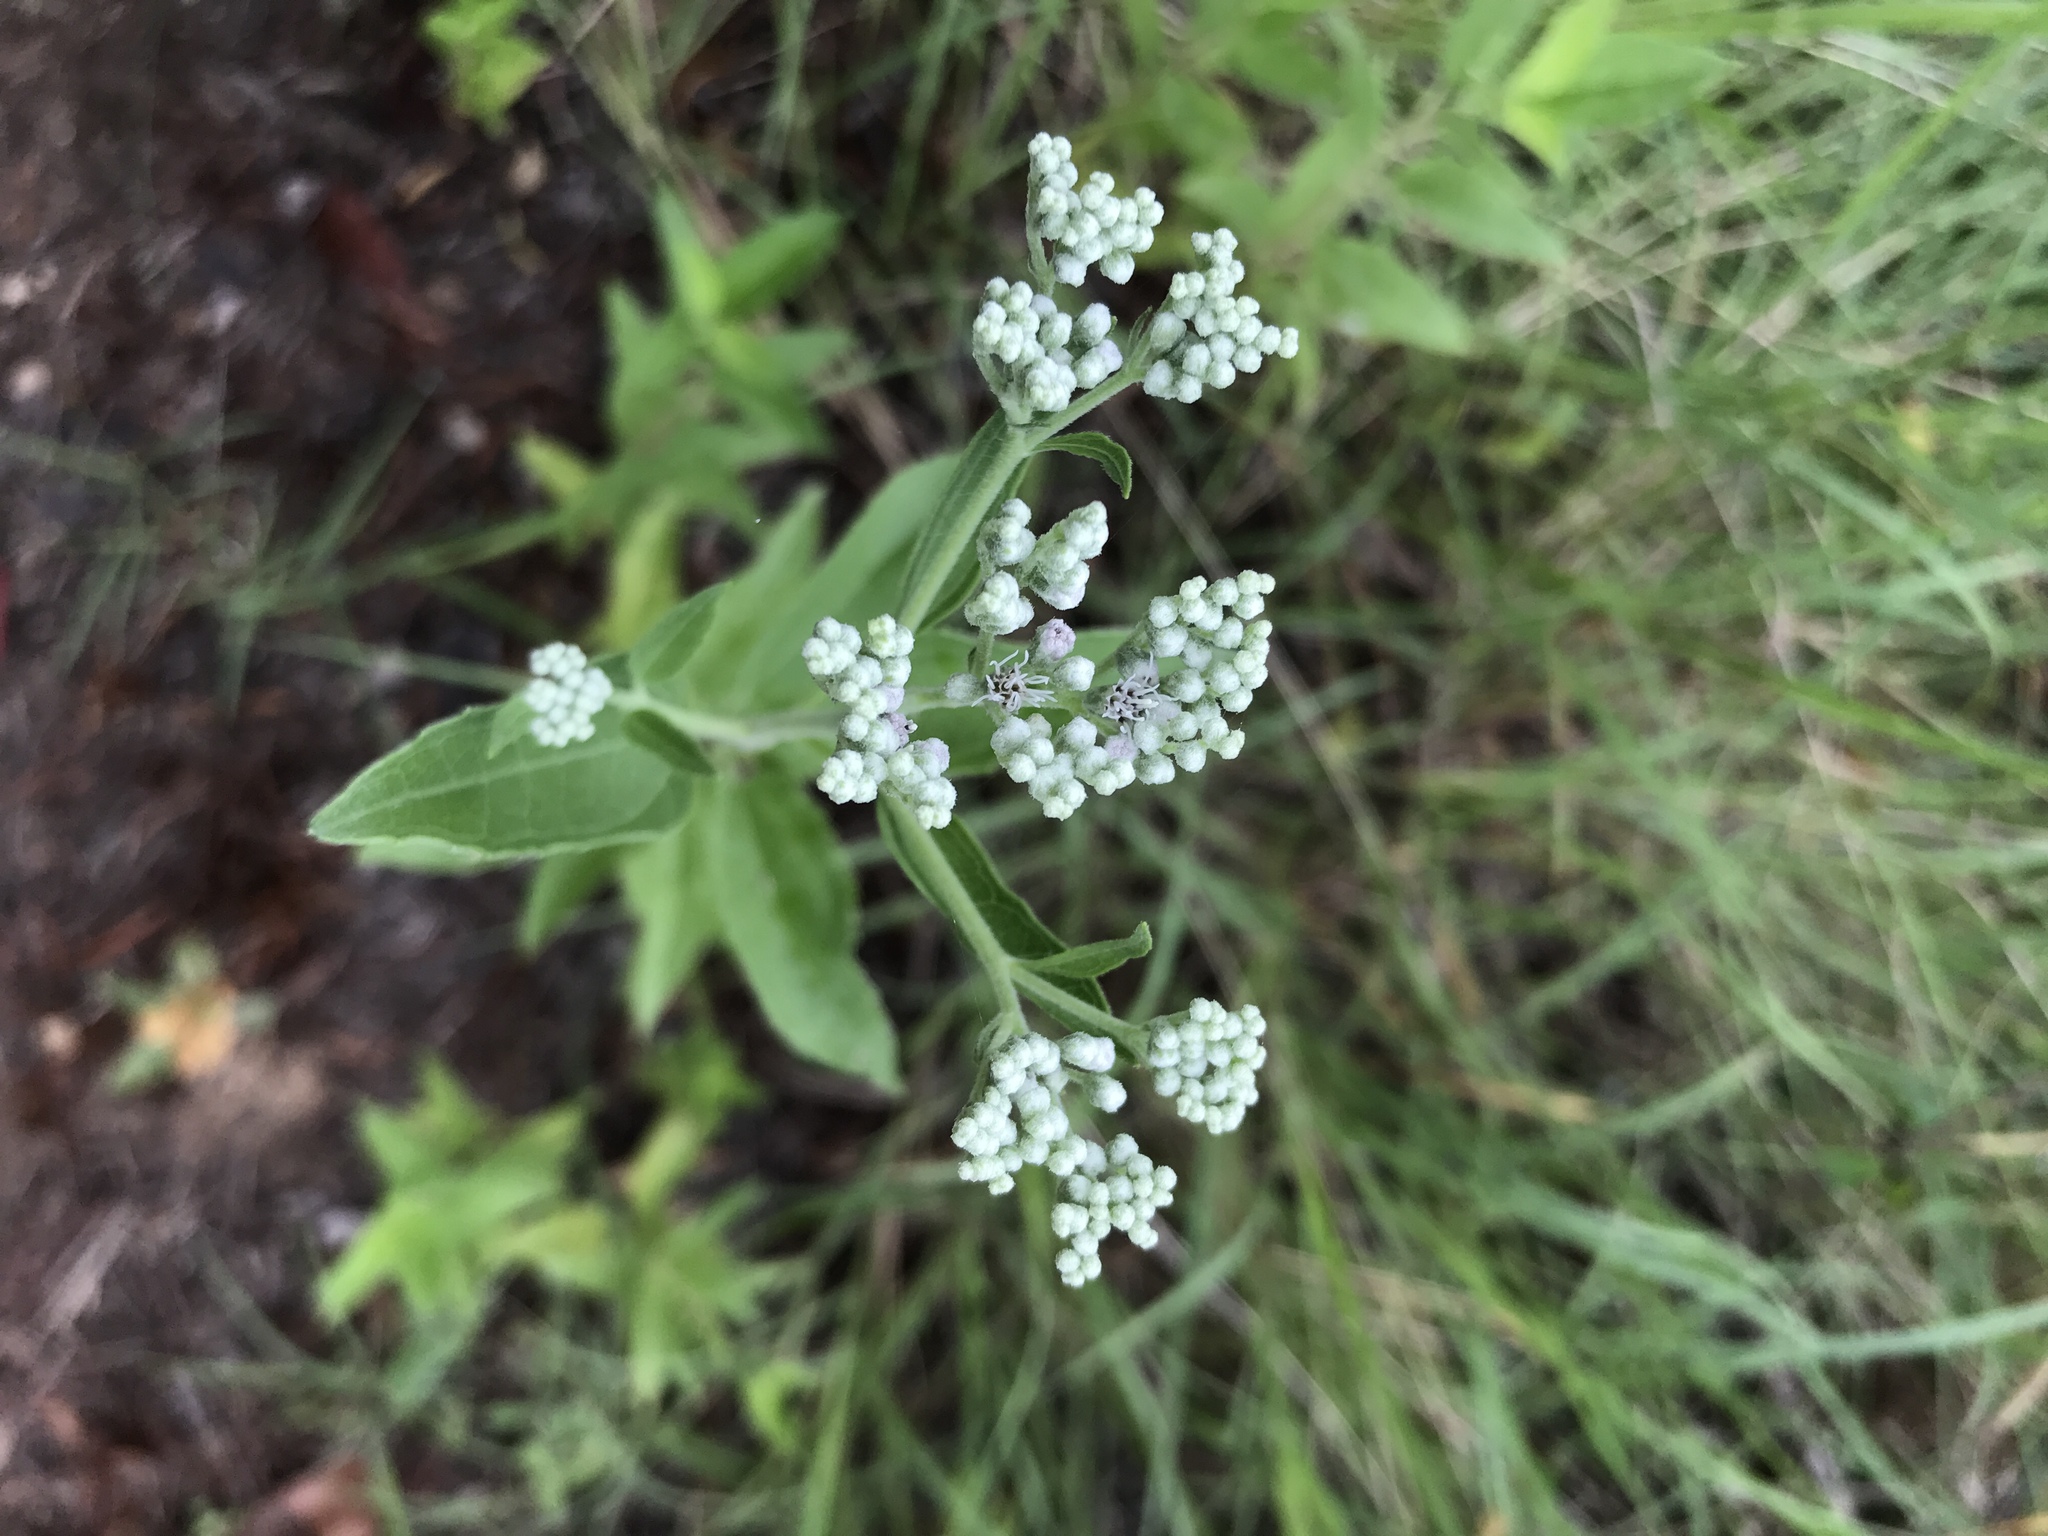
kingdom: Plantae
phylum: Tracheophyta
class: Magnoliopsida
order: Asterales
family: Asteraceae
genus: Eupatorium
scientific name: Eupatorium serotinum
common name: Late boneset
